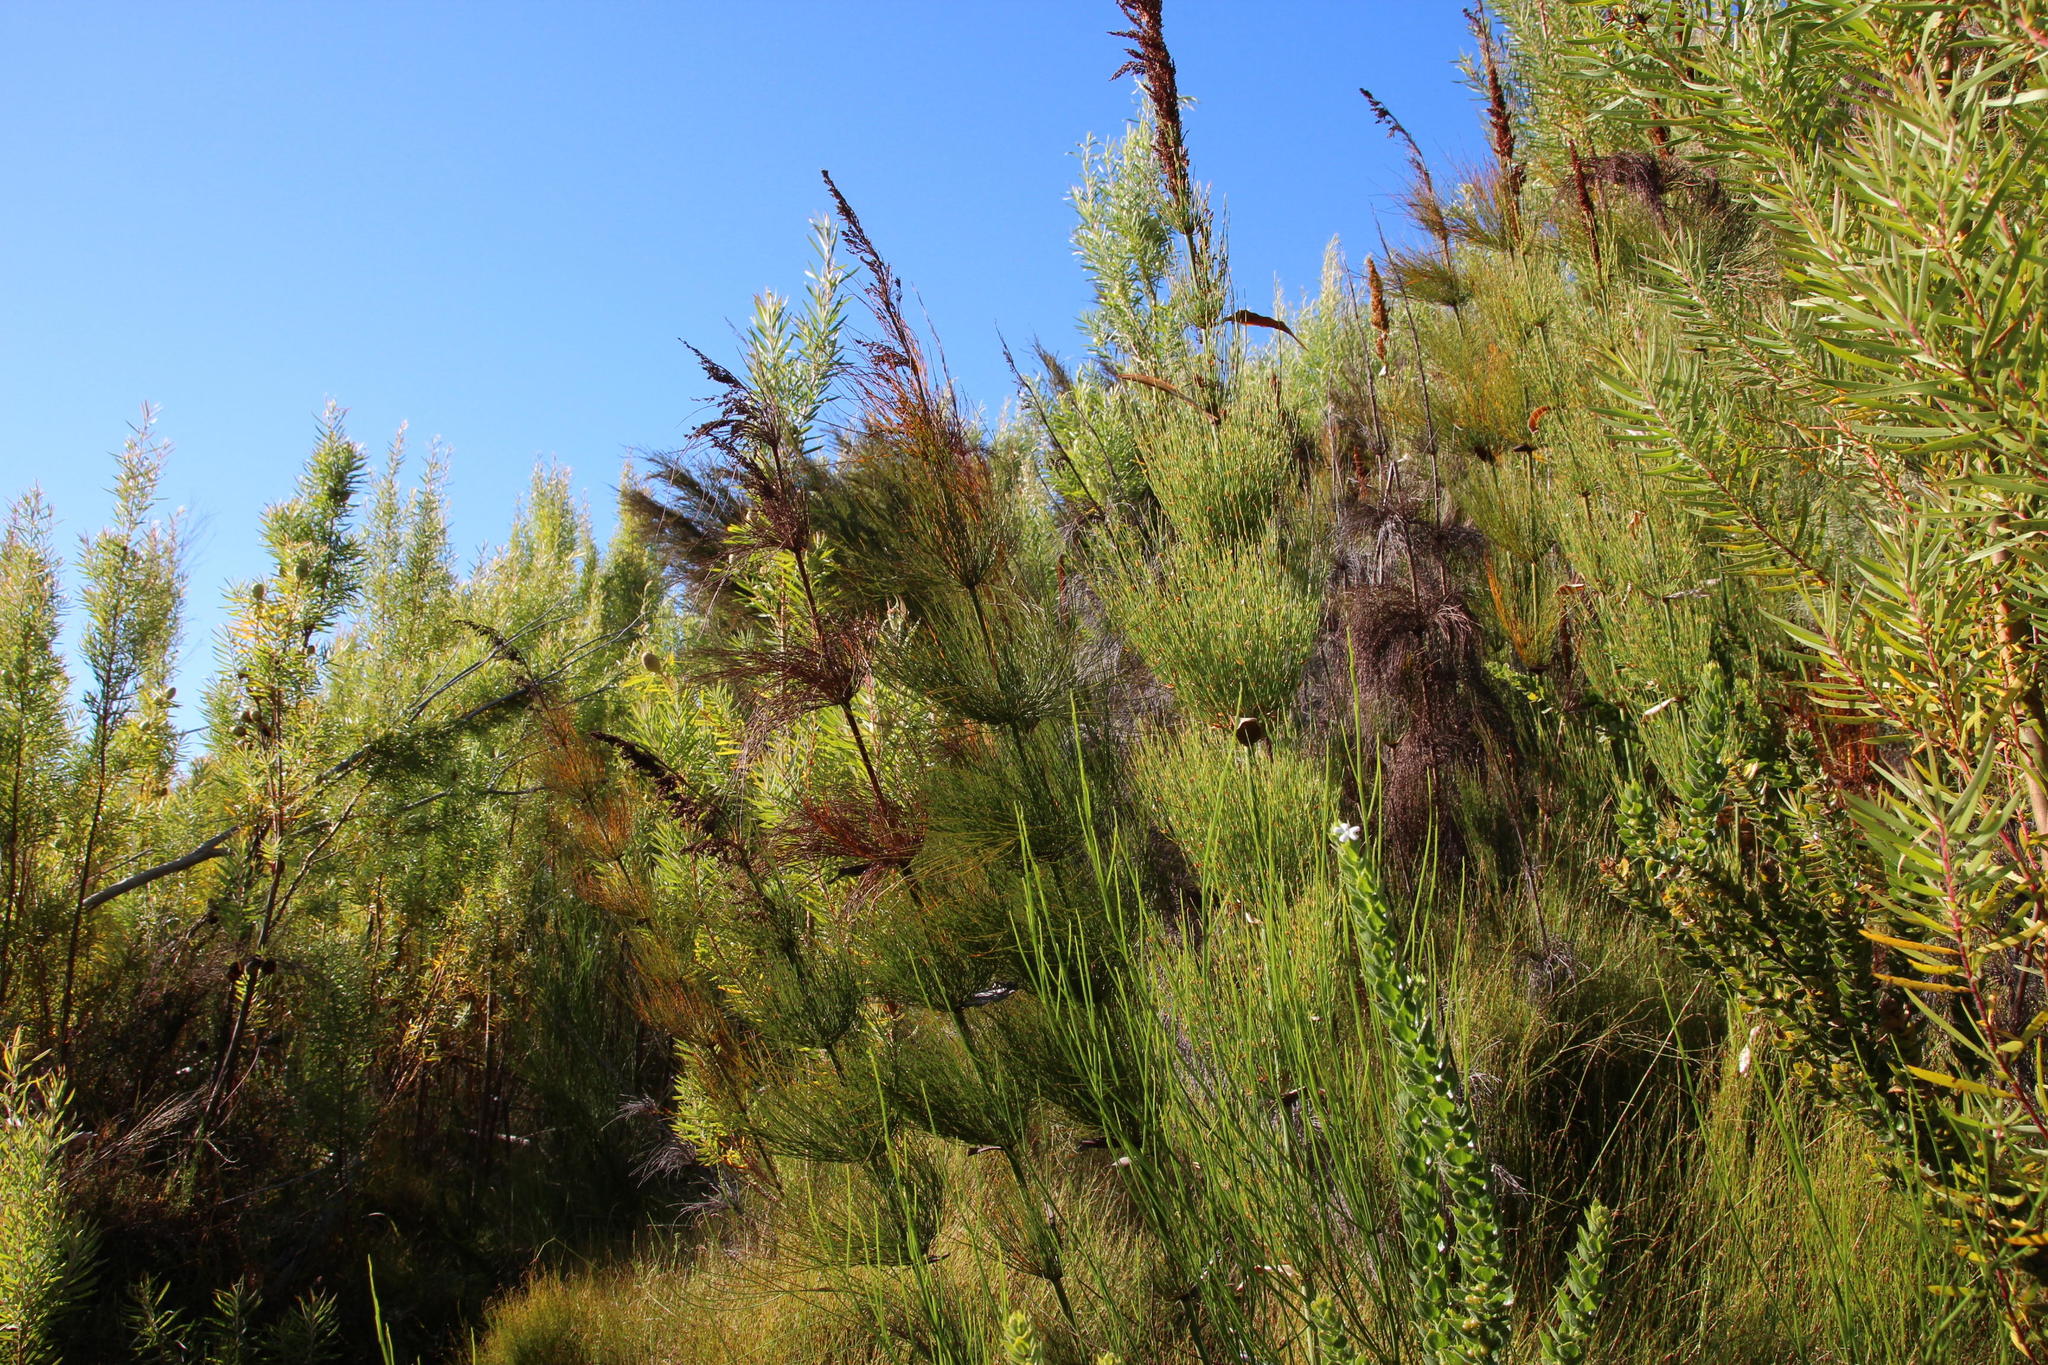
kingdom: Plantae
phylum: Tracheophyta
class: Liliopsida
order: Poales
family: Restionaceae
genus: Elegia
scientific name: Elegia capensis
